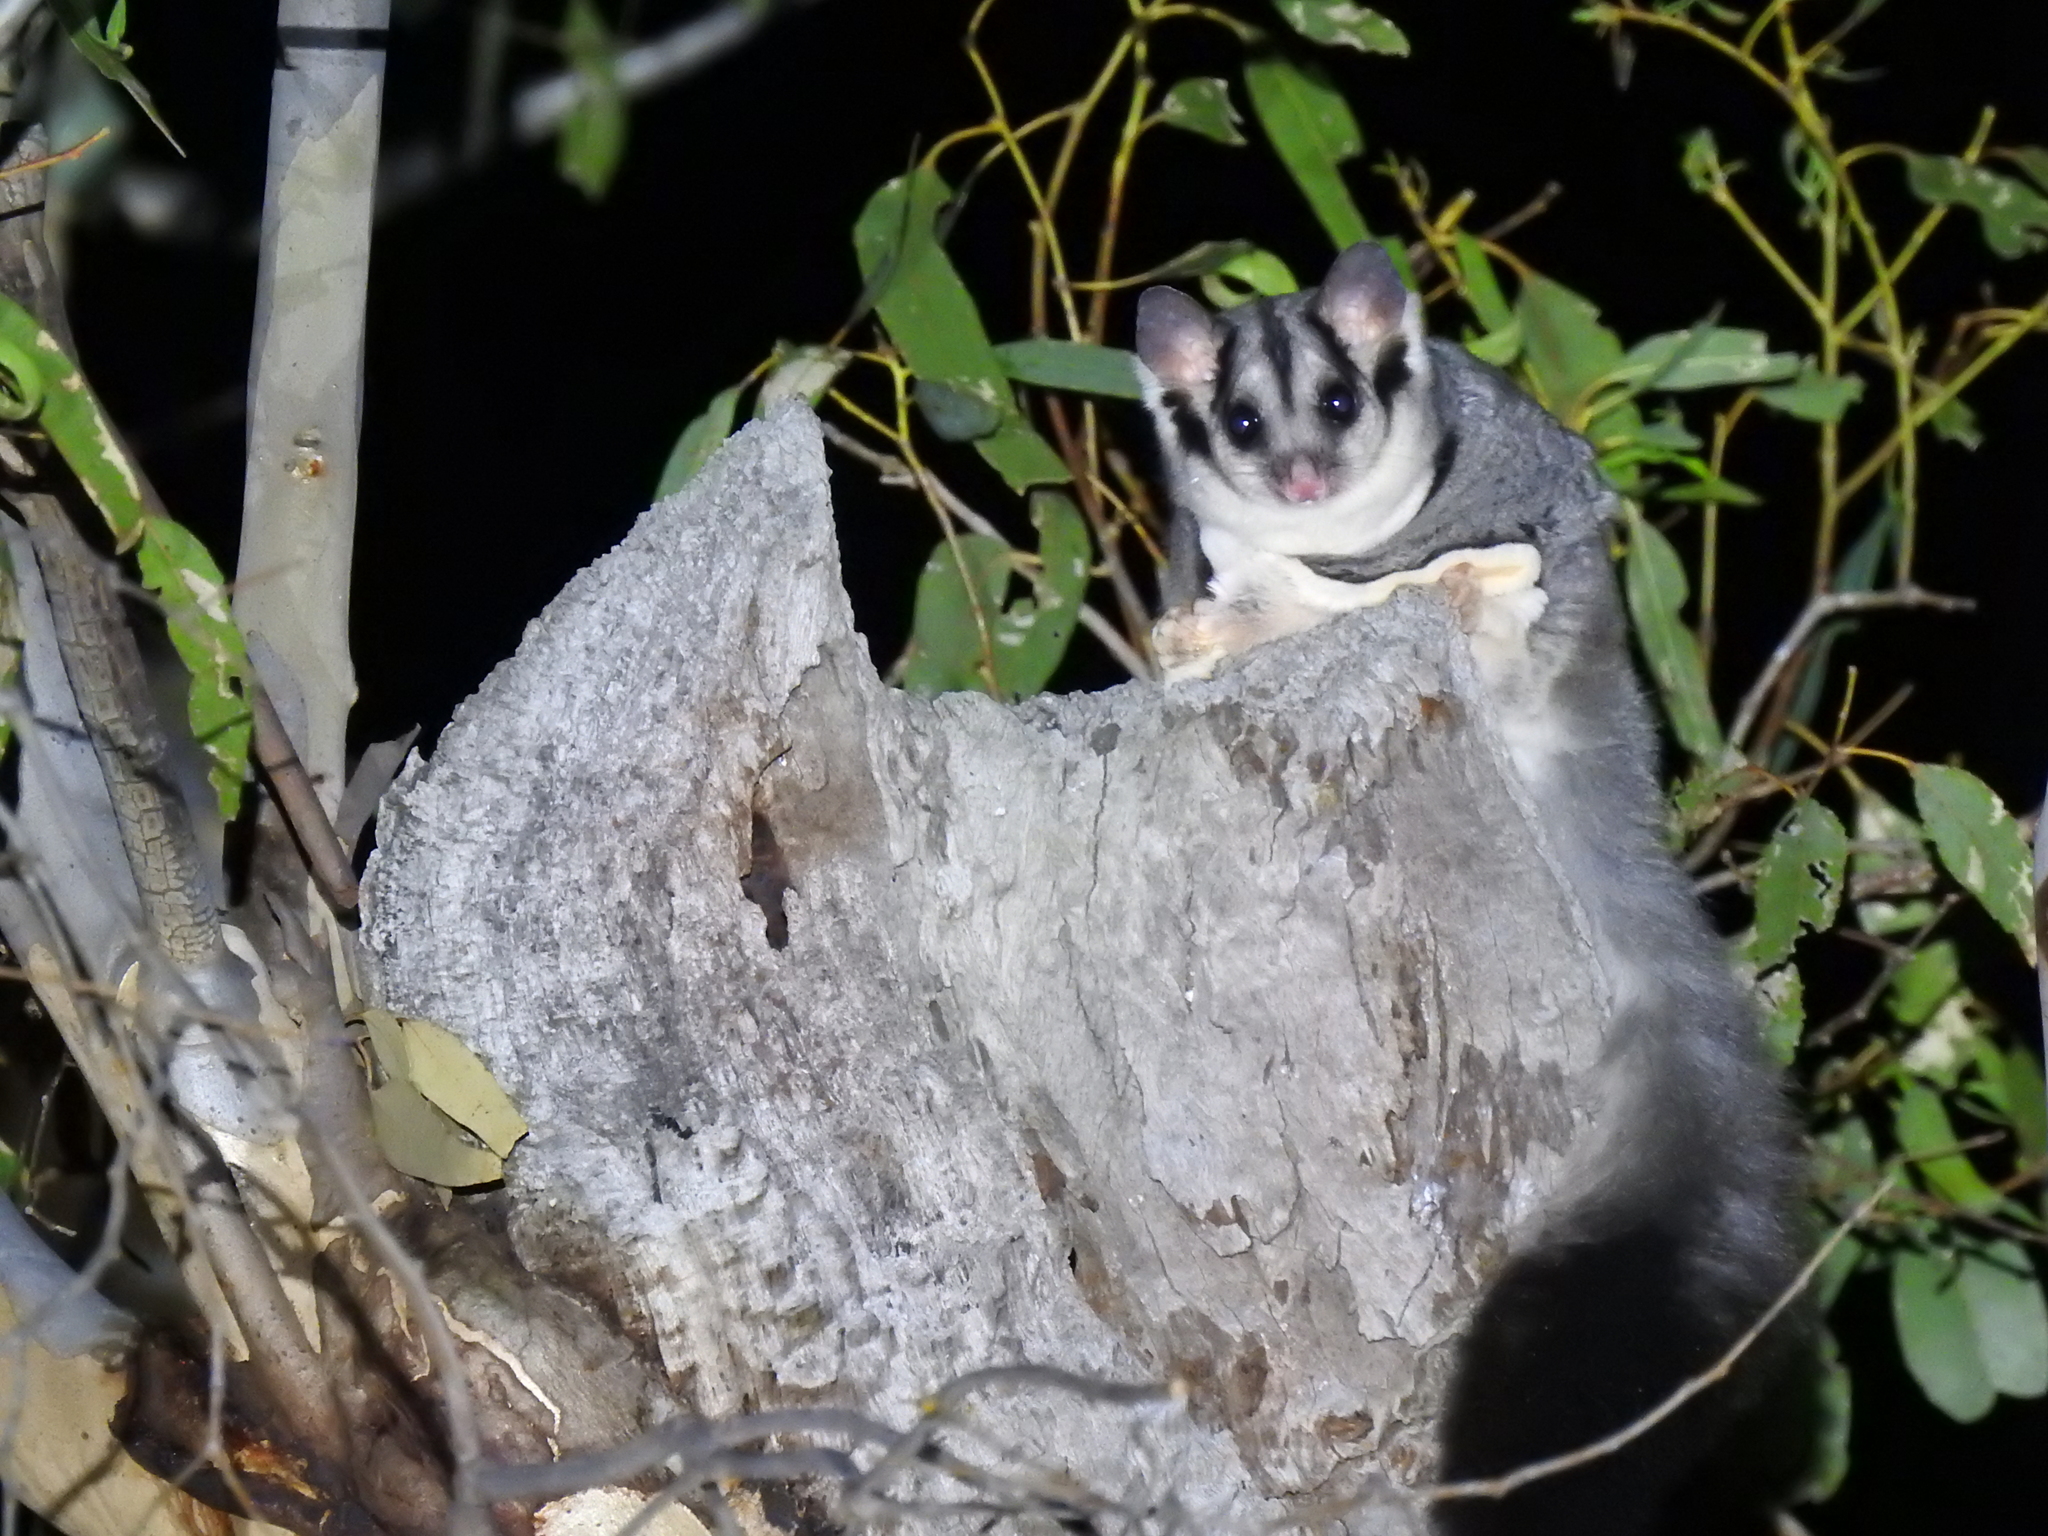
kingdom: Animalia
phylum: Chordata
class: Mammalia
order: Diprotodontia
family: Petauridae
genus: Petaurus
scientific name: Petaurus norfolcensis
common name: Squirrel glider
